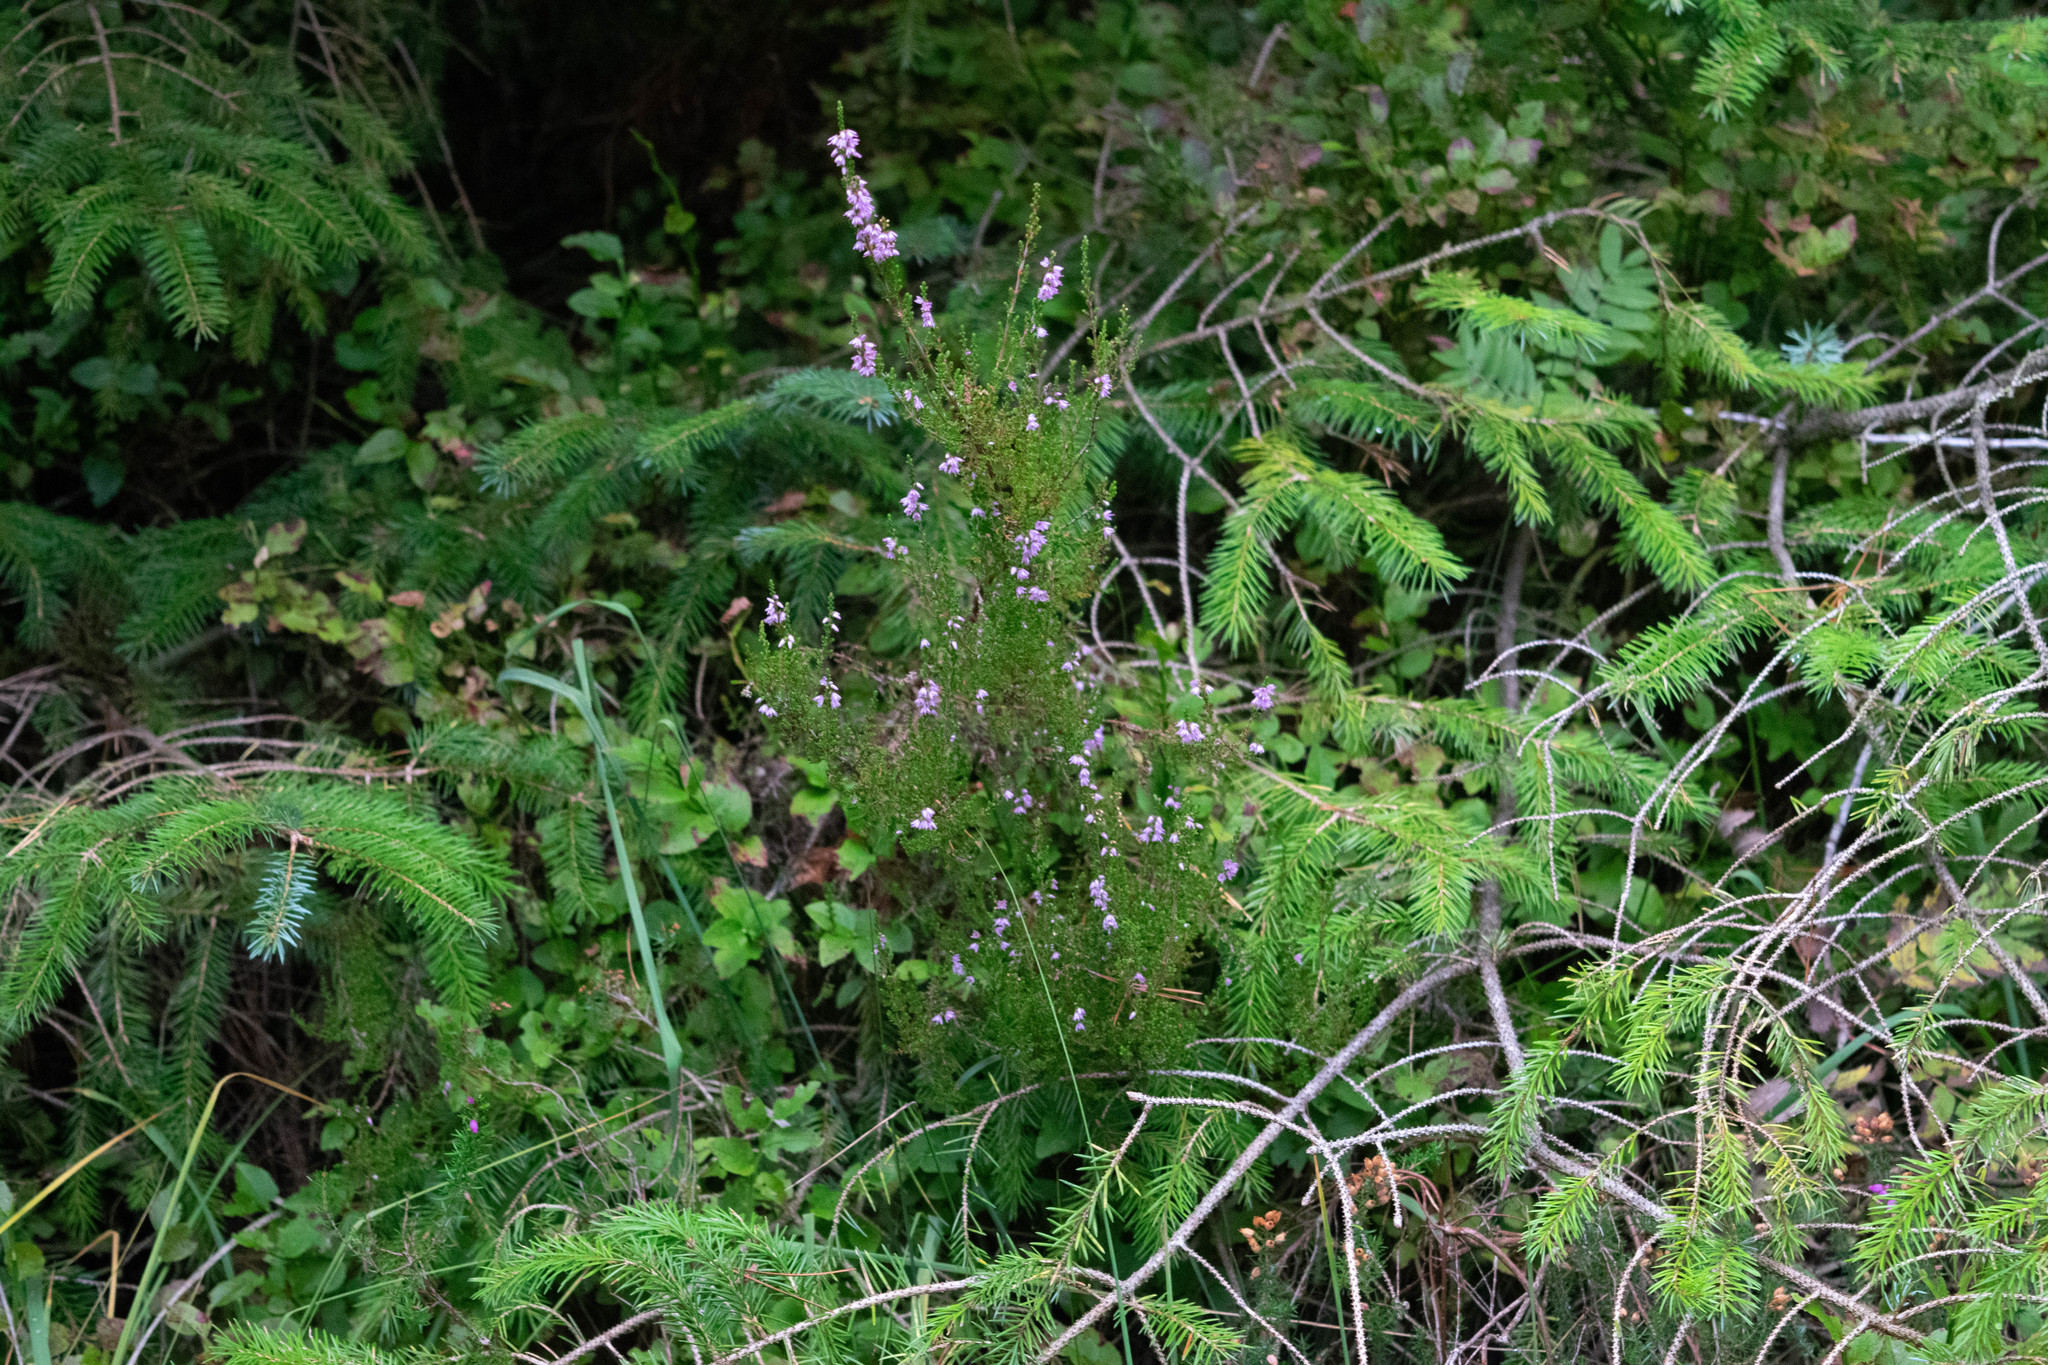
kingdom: Plantae
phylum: Tracheophyta
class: Magnoliopsida
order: Ericales
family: Ericaceae
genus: Calluna
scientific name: Calluna vulgaris
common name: Heather
